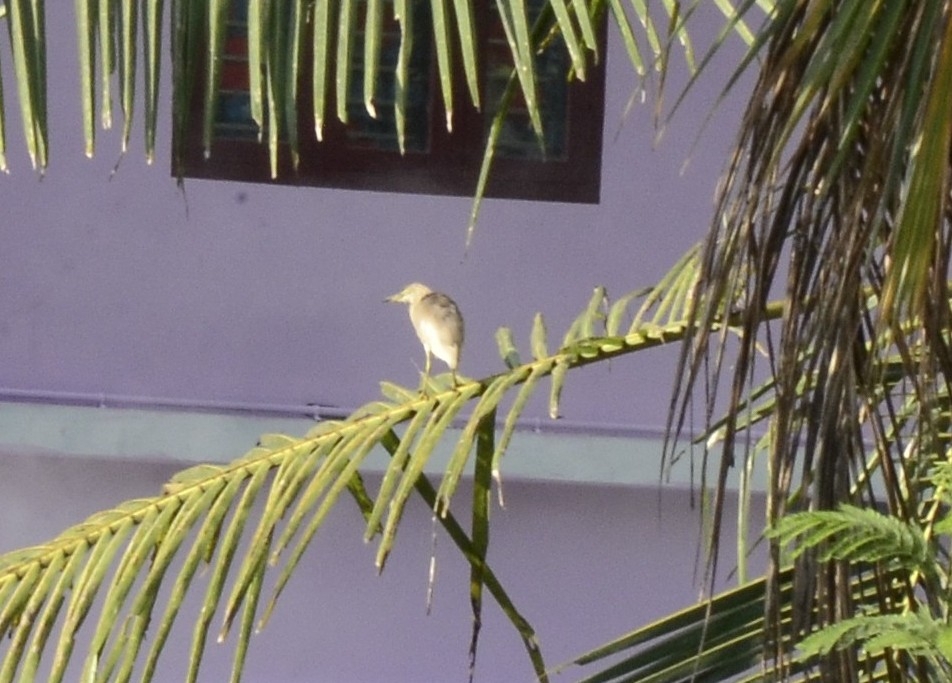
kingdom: Animalia
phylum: Chordata
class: Aves
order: Pelecaniformes
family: Ardeidae
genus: Ardeola
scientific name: Ardeola grayii
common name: Indian pond heron
